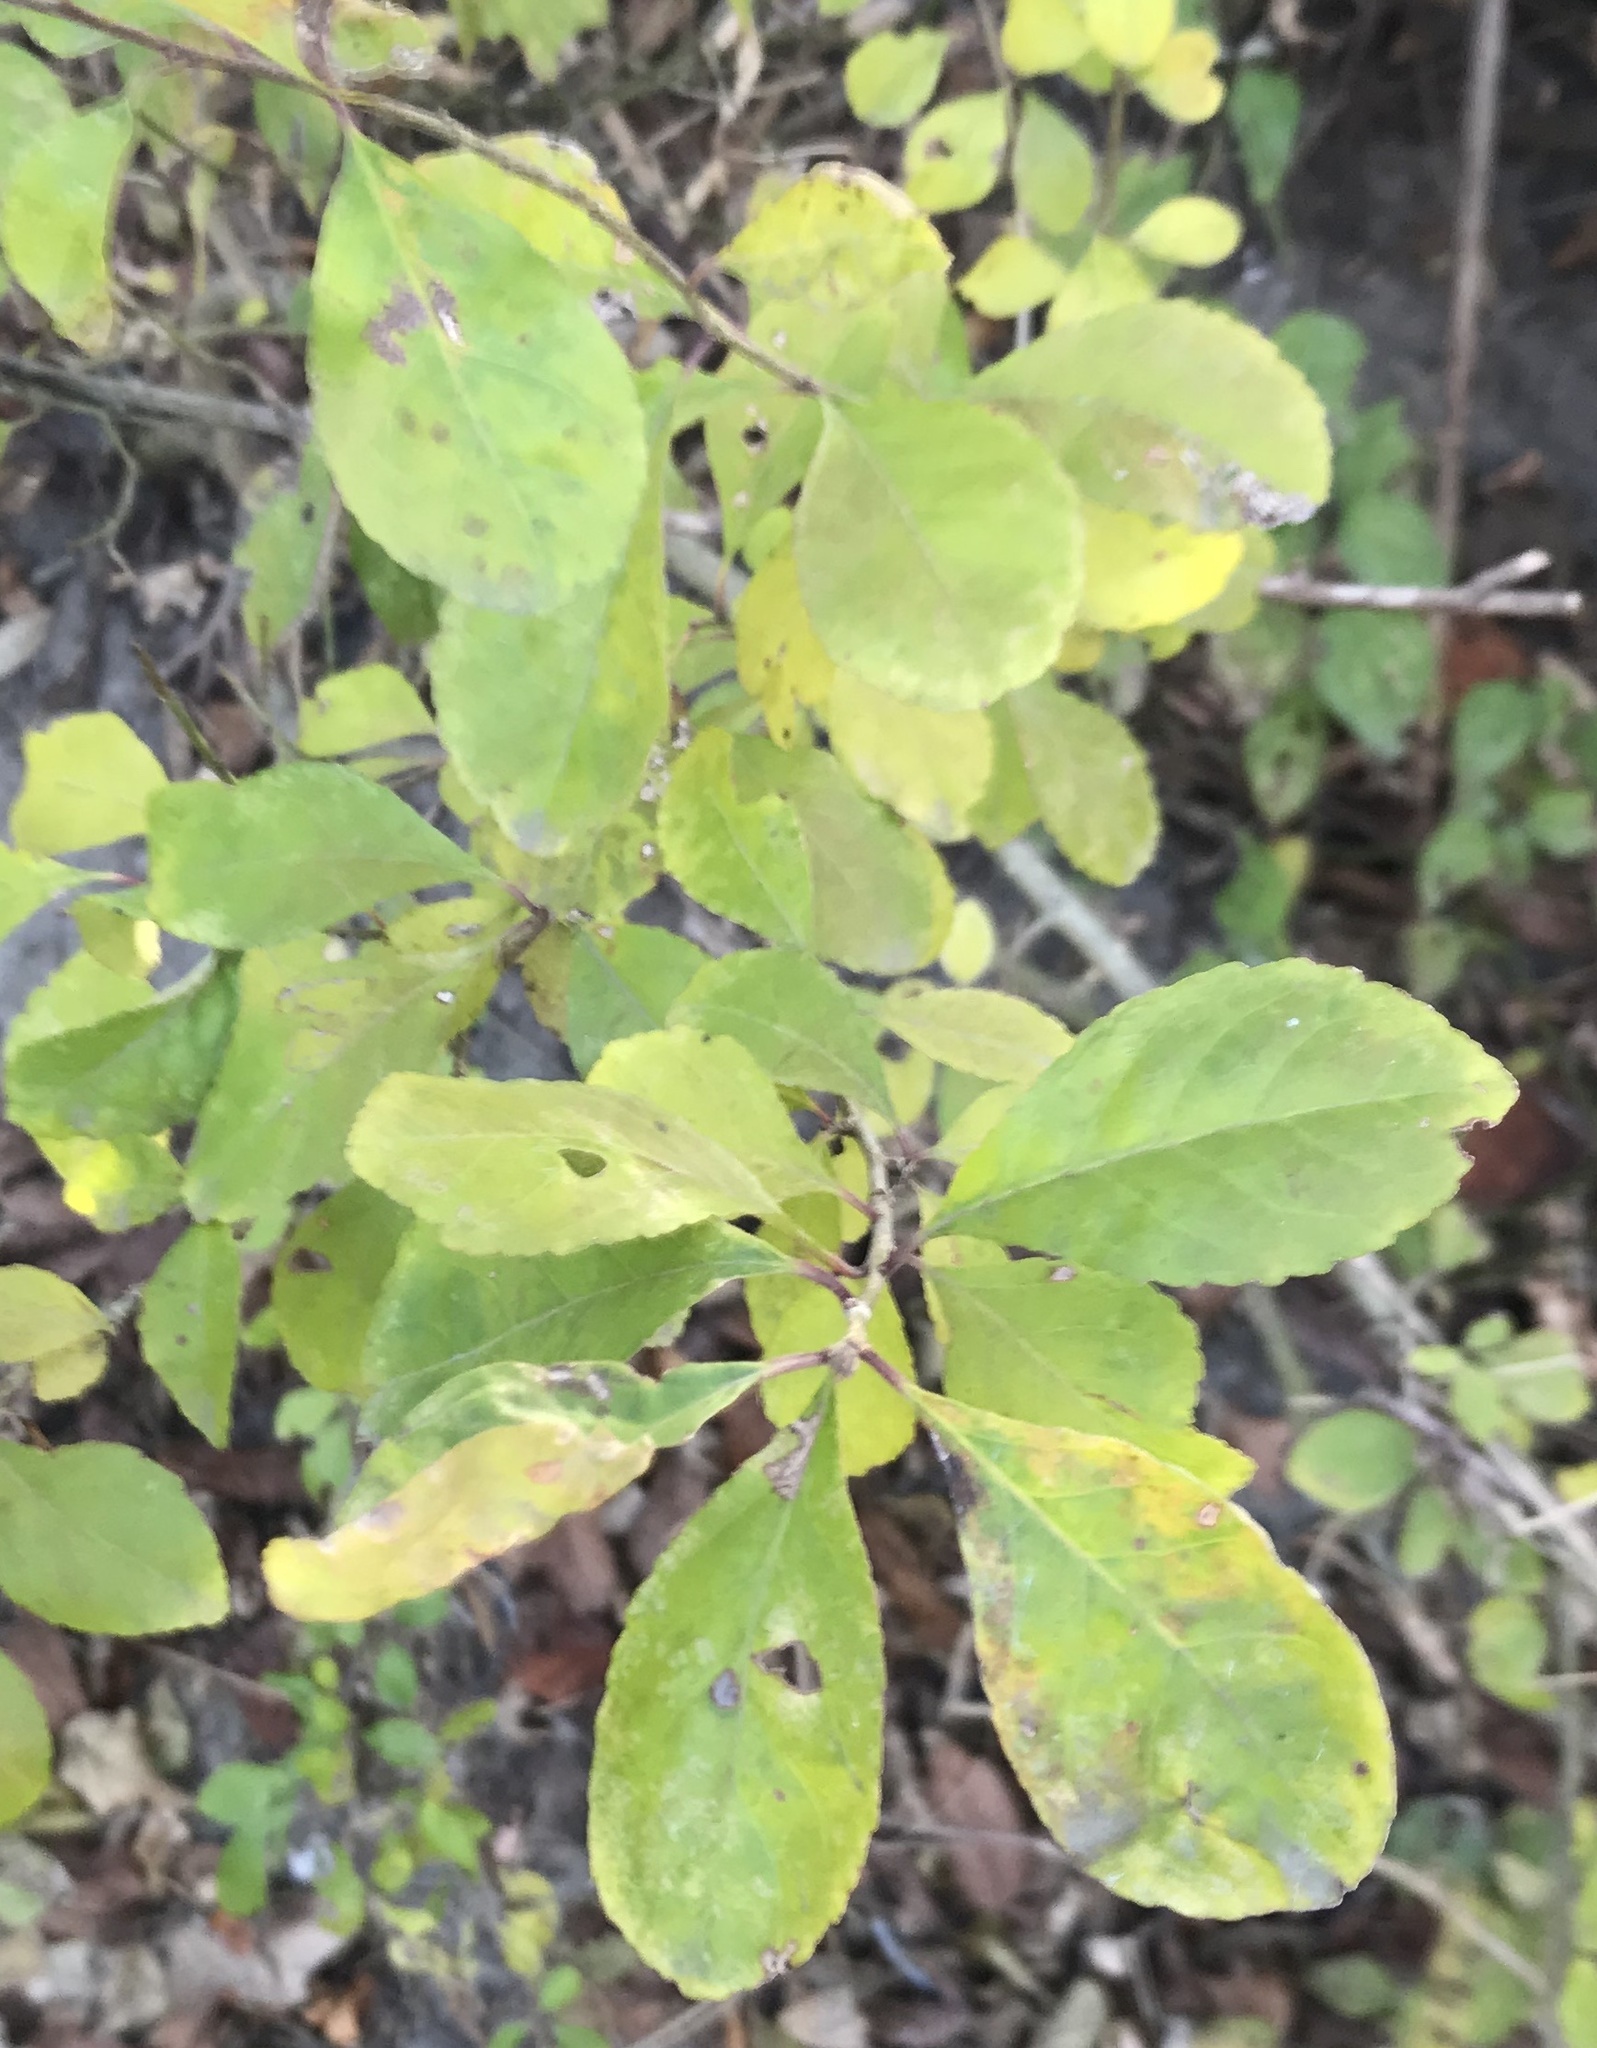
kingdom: Plantae
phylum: Tracheophyta
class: Magnoliopsida
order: Aquifoliales
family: Aquifoliaceae
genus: Ilex
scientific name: Ilex decidua
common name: Possum-haw
